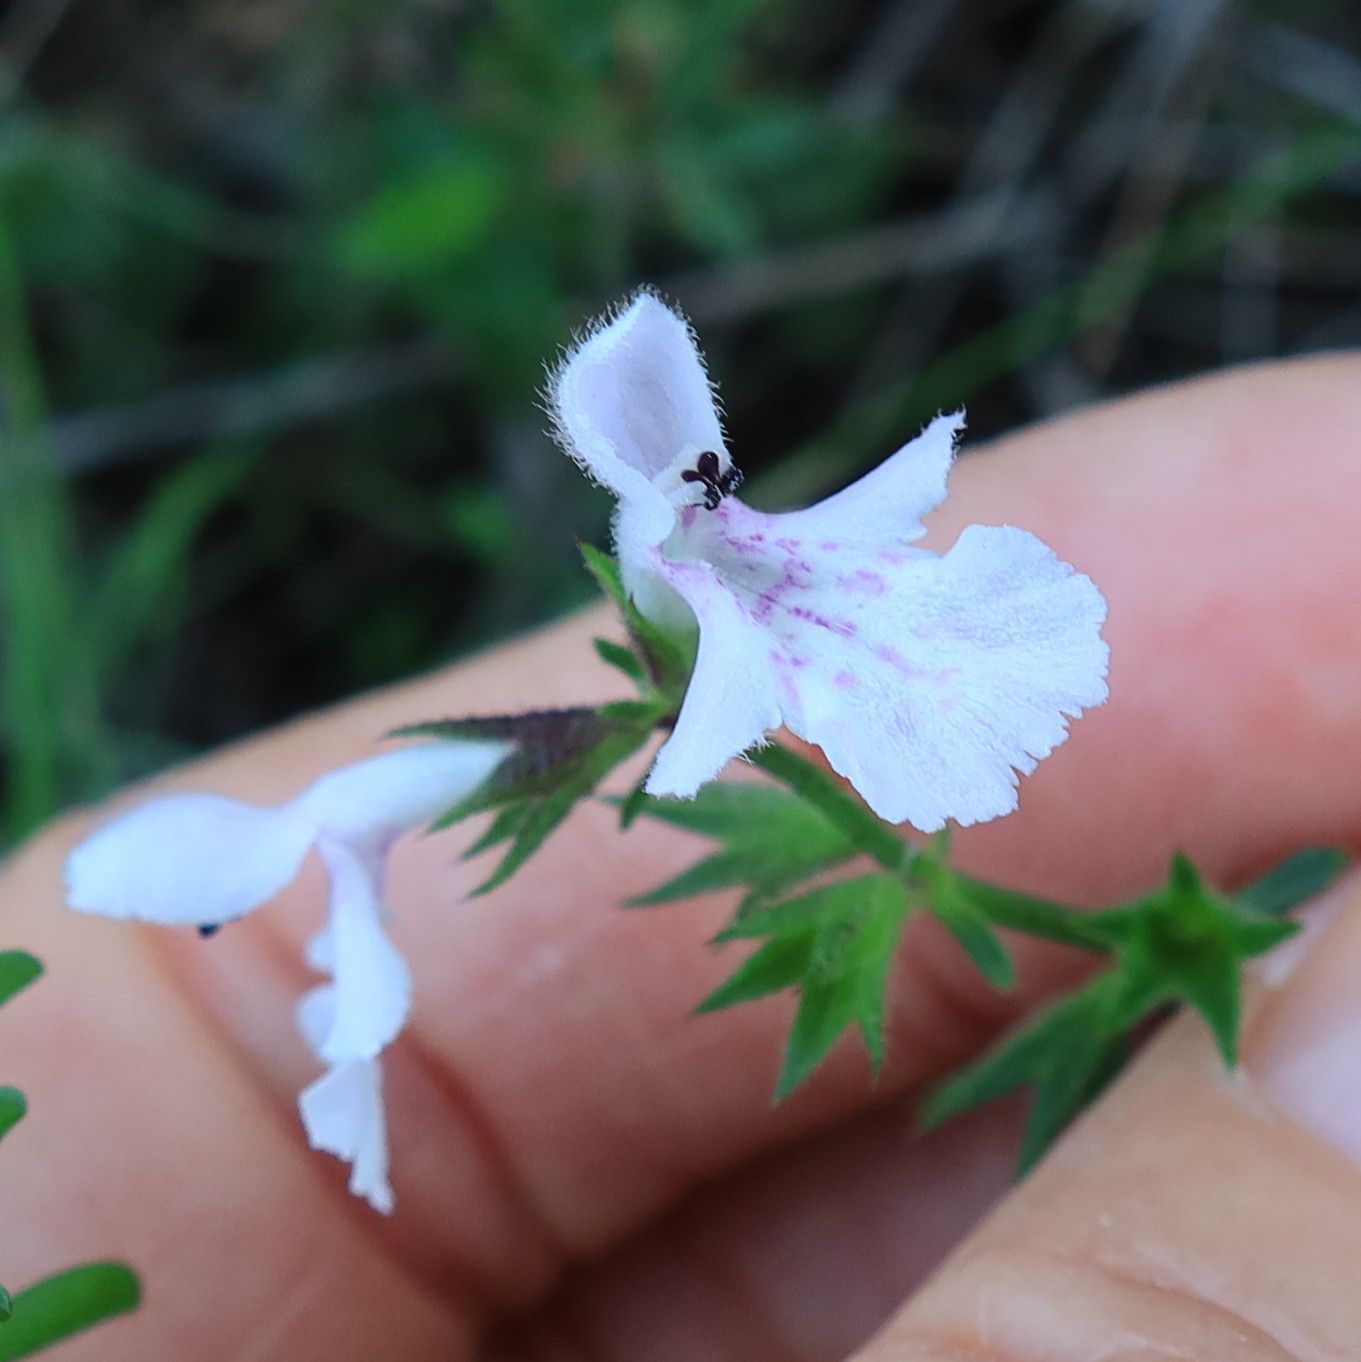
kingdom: Plantae
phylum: Tracheophyta
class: Magnoliopsida
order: Lamiales
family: Lamiaceae
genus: Stachys
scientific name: Stachys aethiopica
